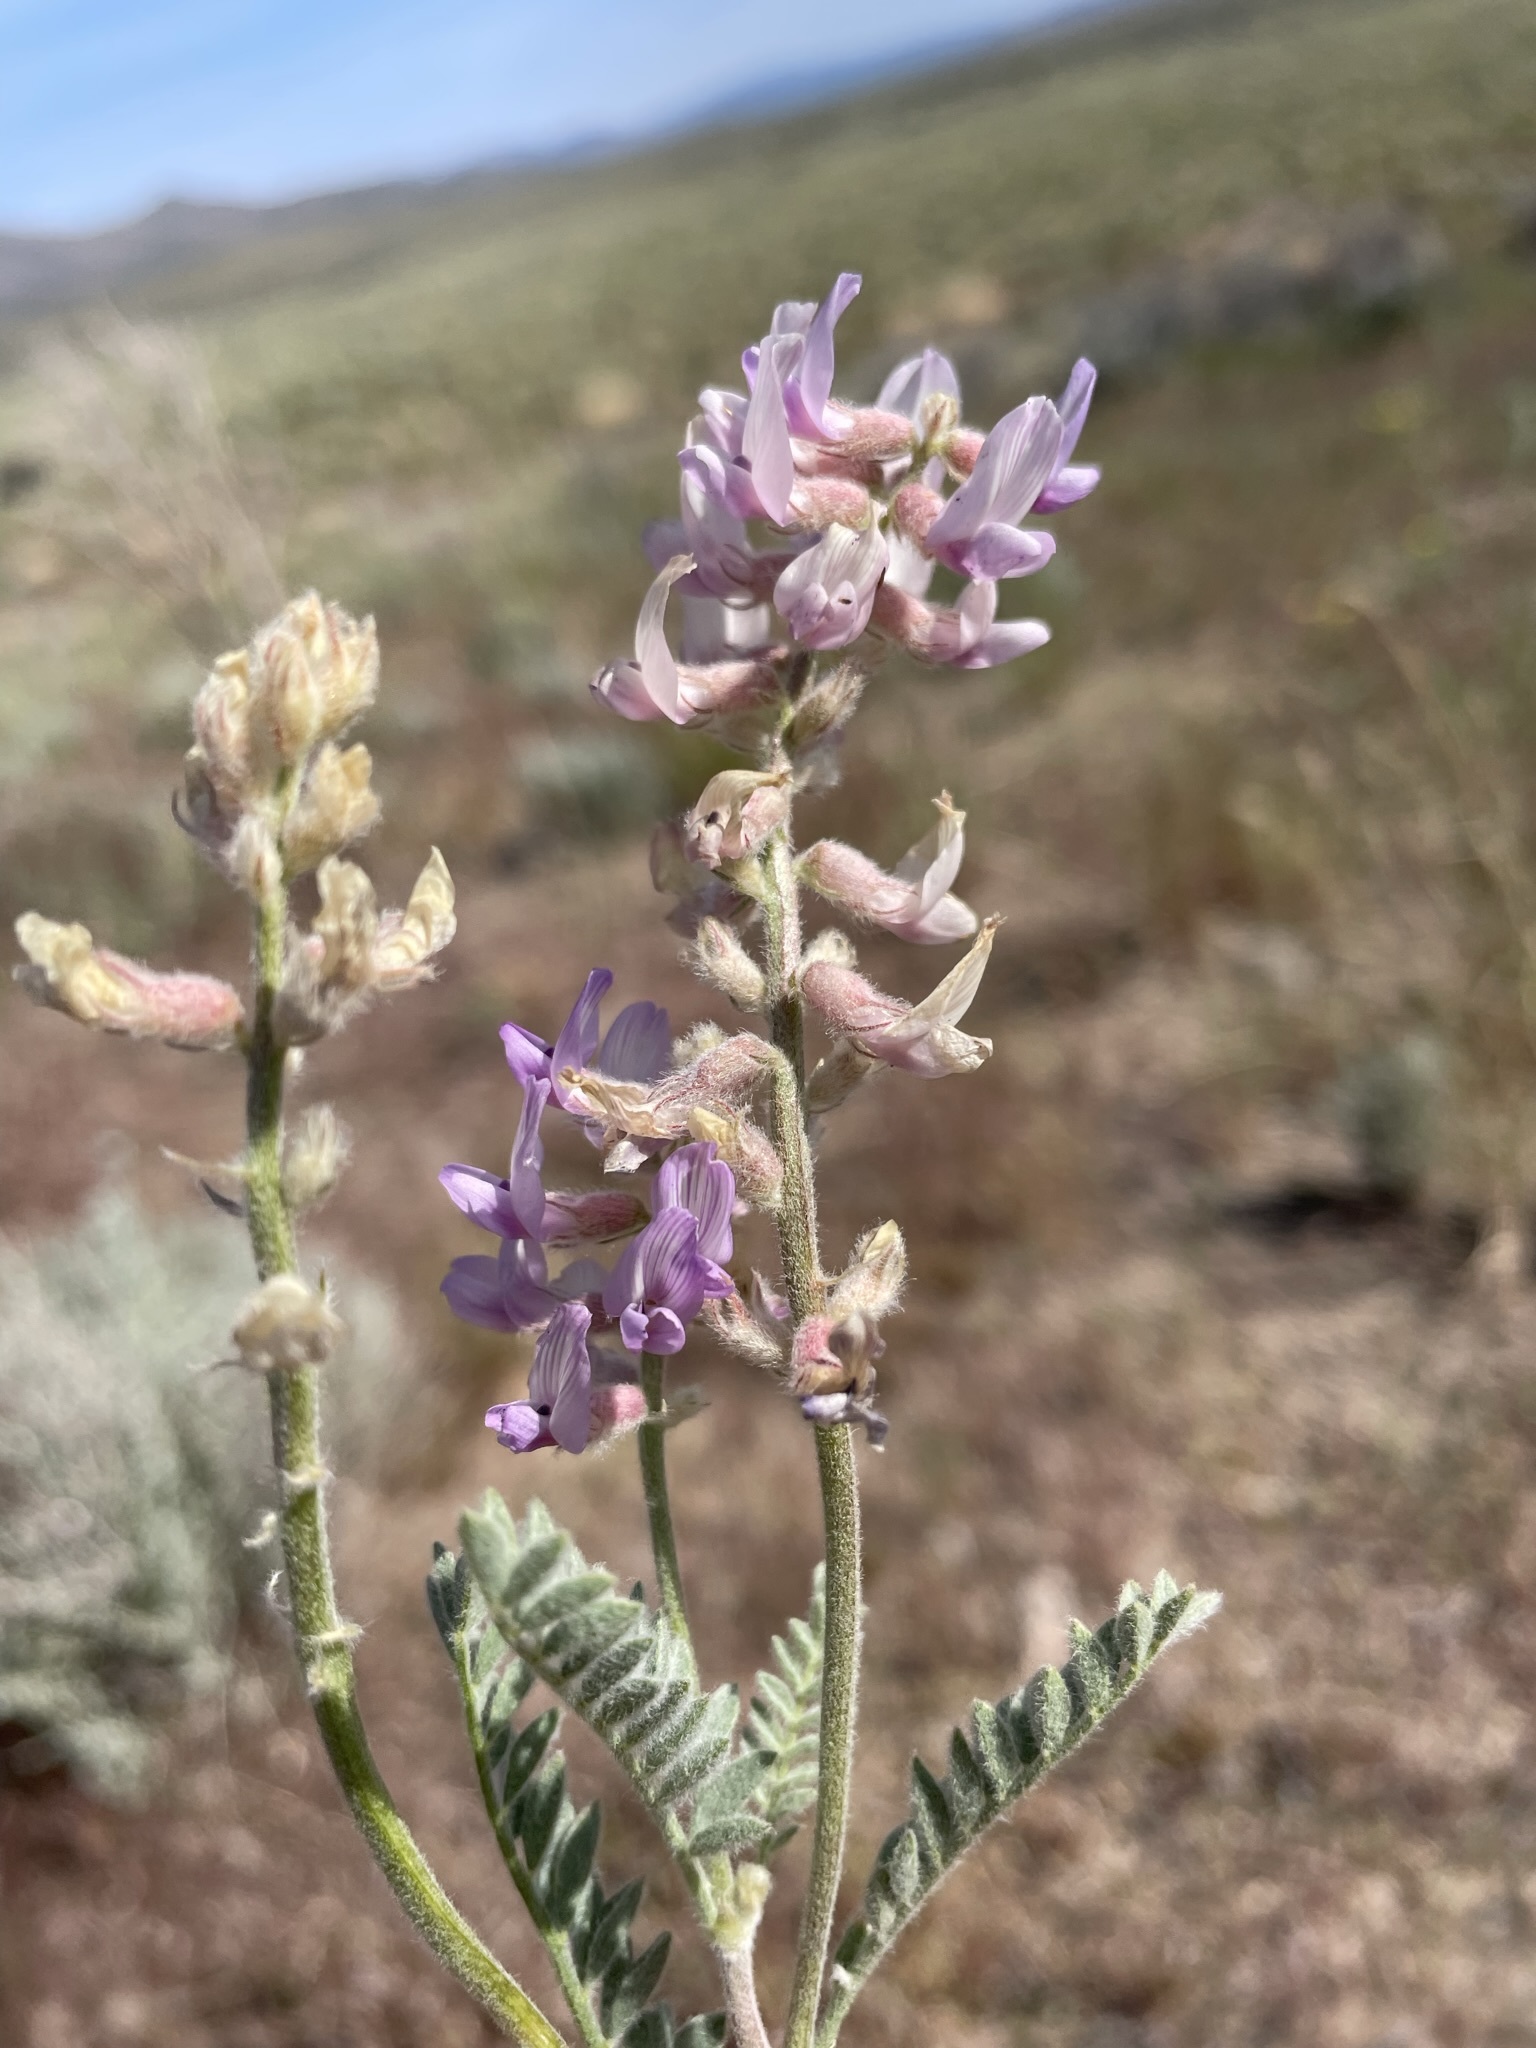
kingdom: Plantae
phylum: Tracheophyta
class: Magnoliopsida
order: Fabales
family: Fabaceae
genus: Astragalus
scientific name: Astragalus andersonii
